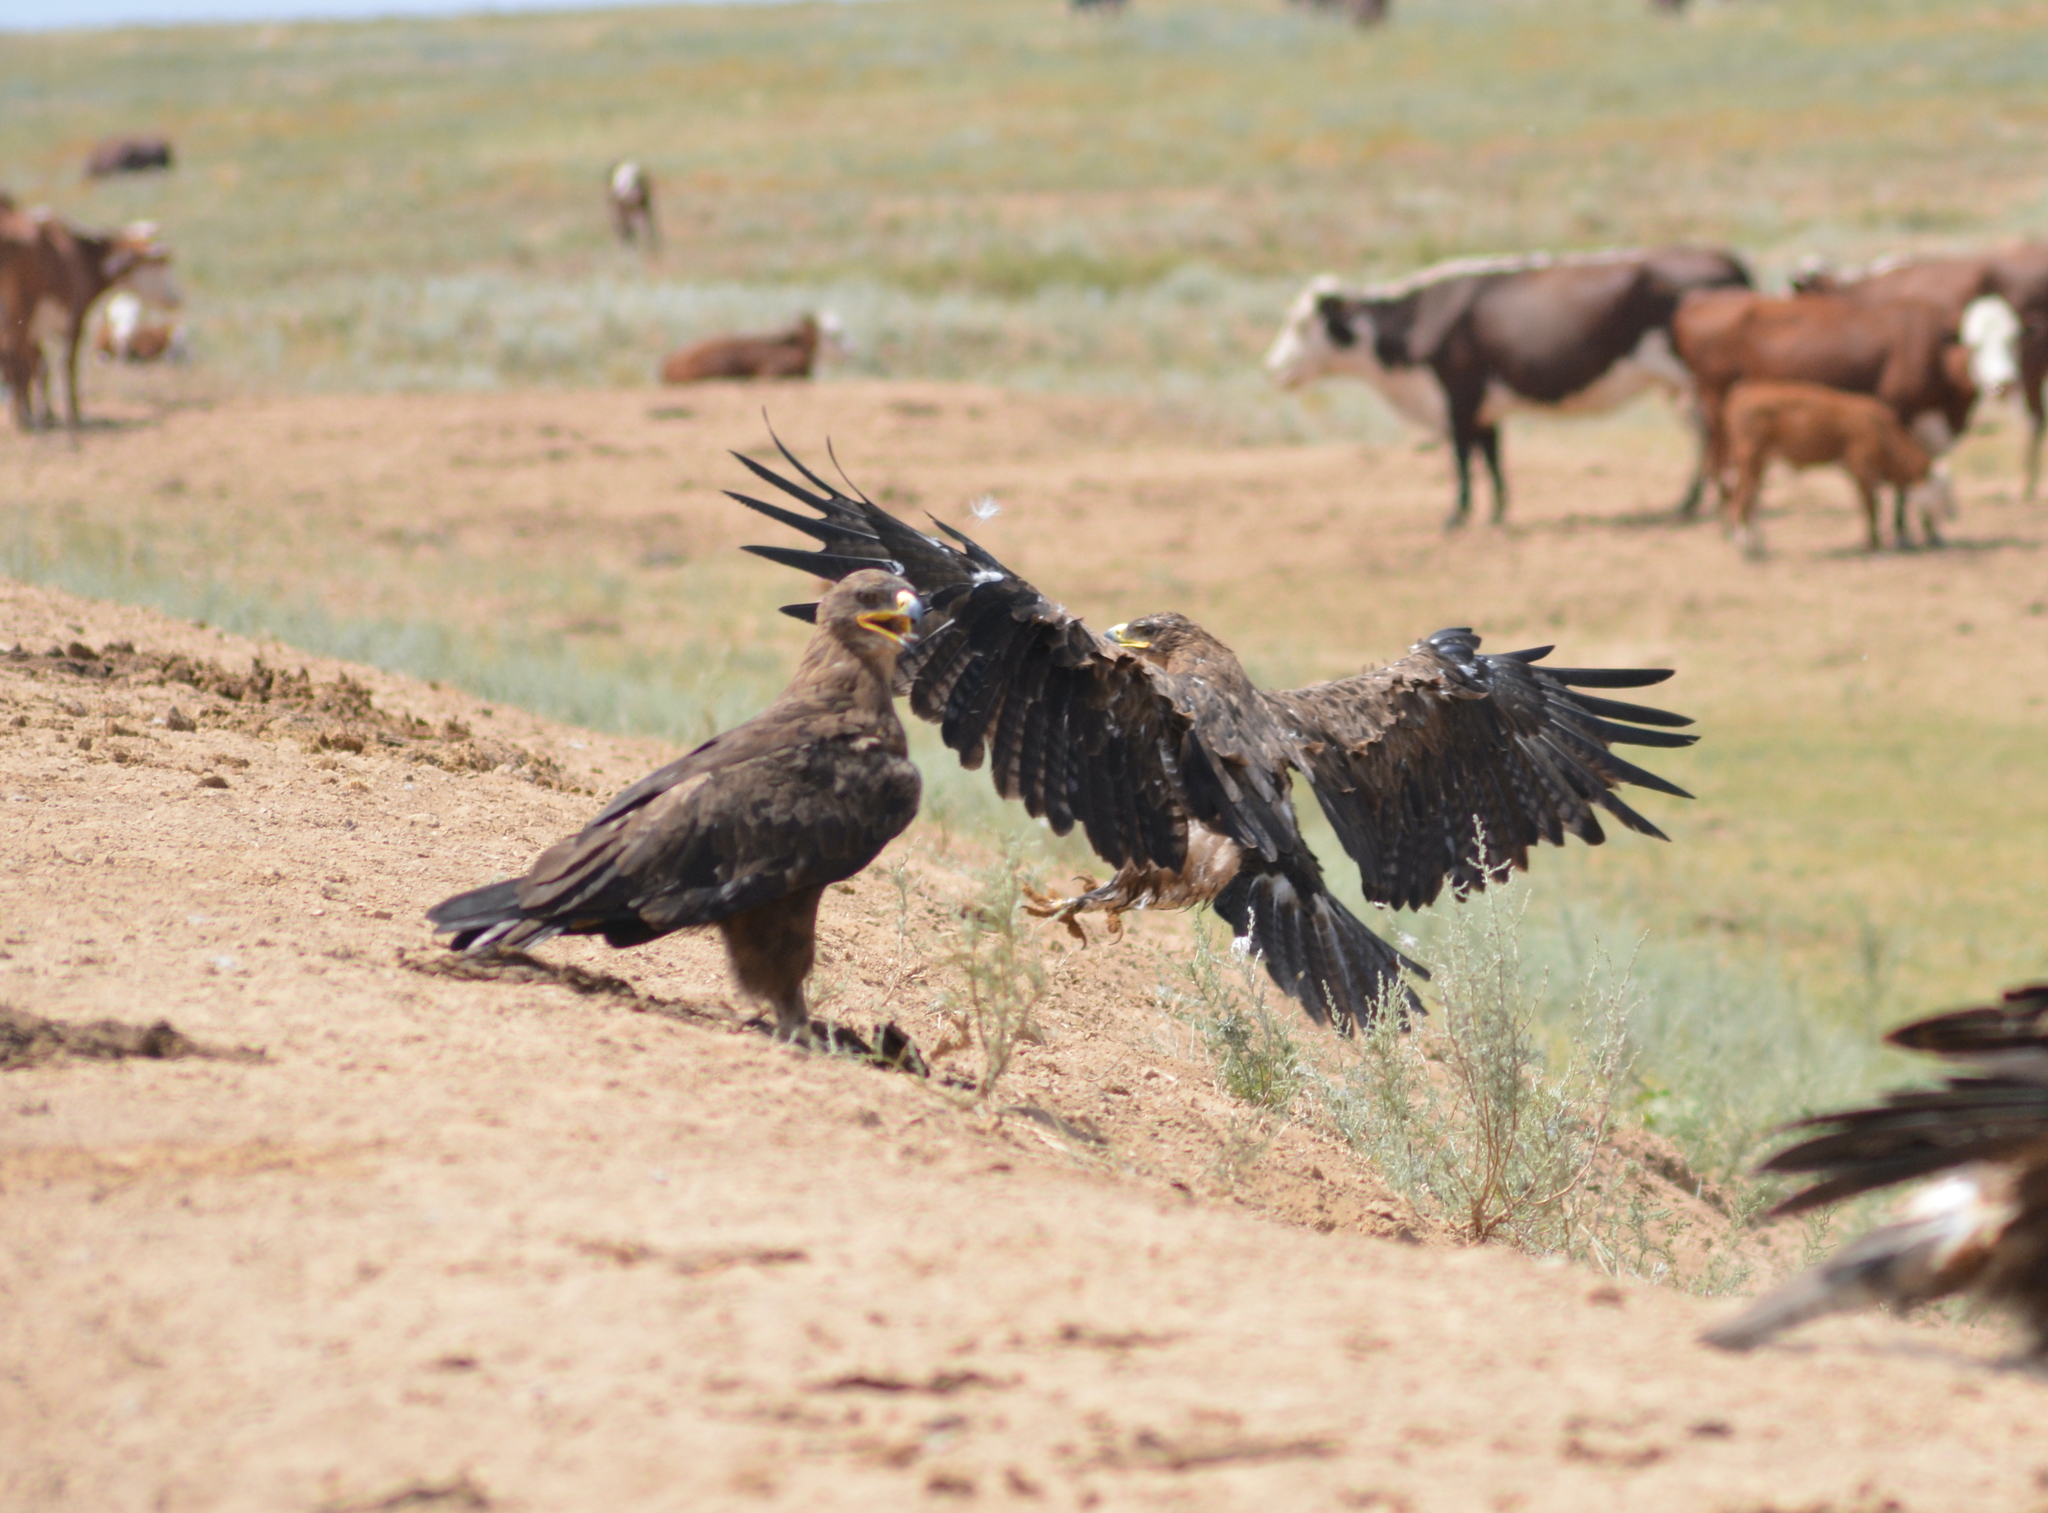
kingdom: Animalia
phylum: Chordata
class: Aves
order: Accipitriformes
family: Accipitridae
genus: Aquila
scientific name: Aquila nipalensis
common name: Steppe eagle
